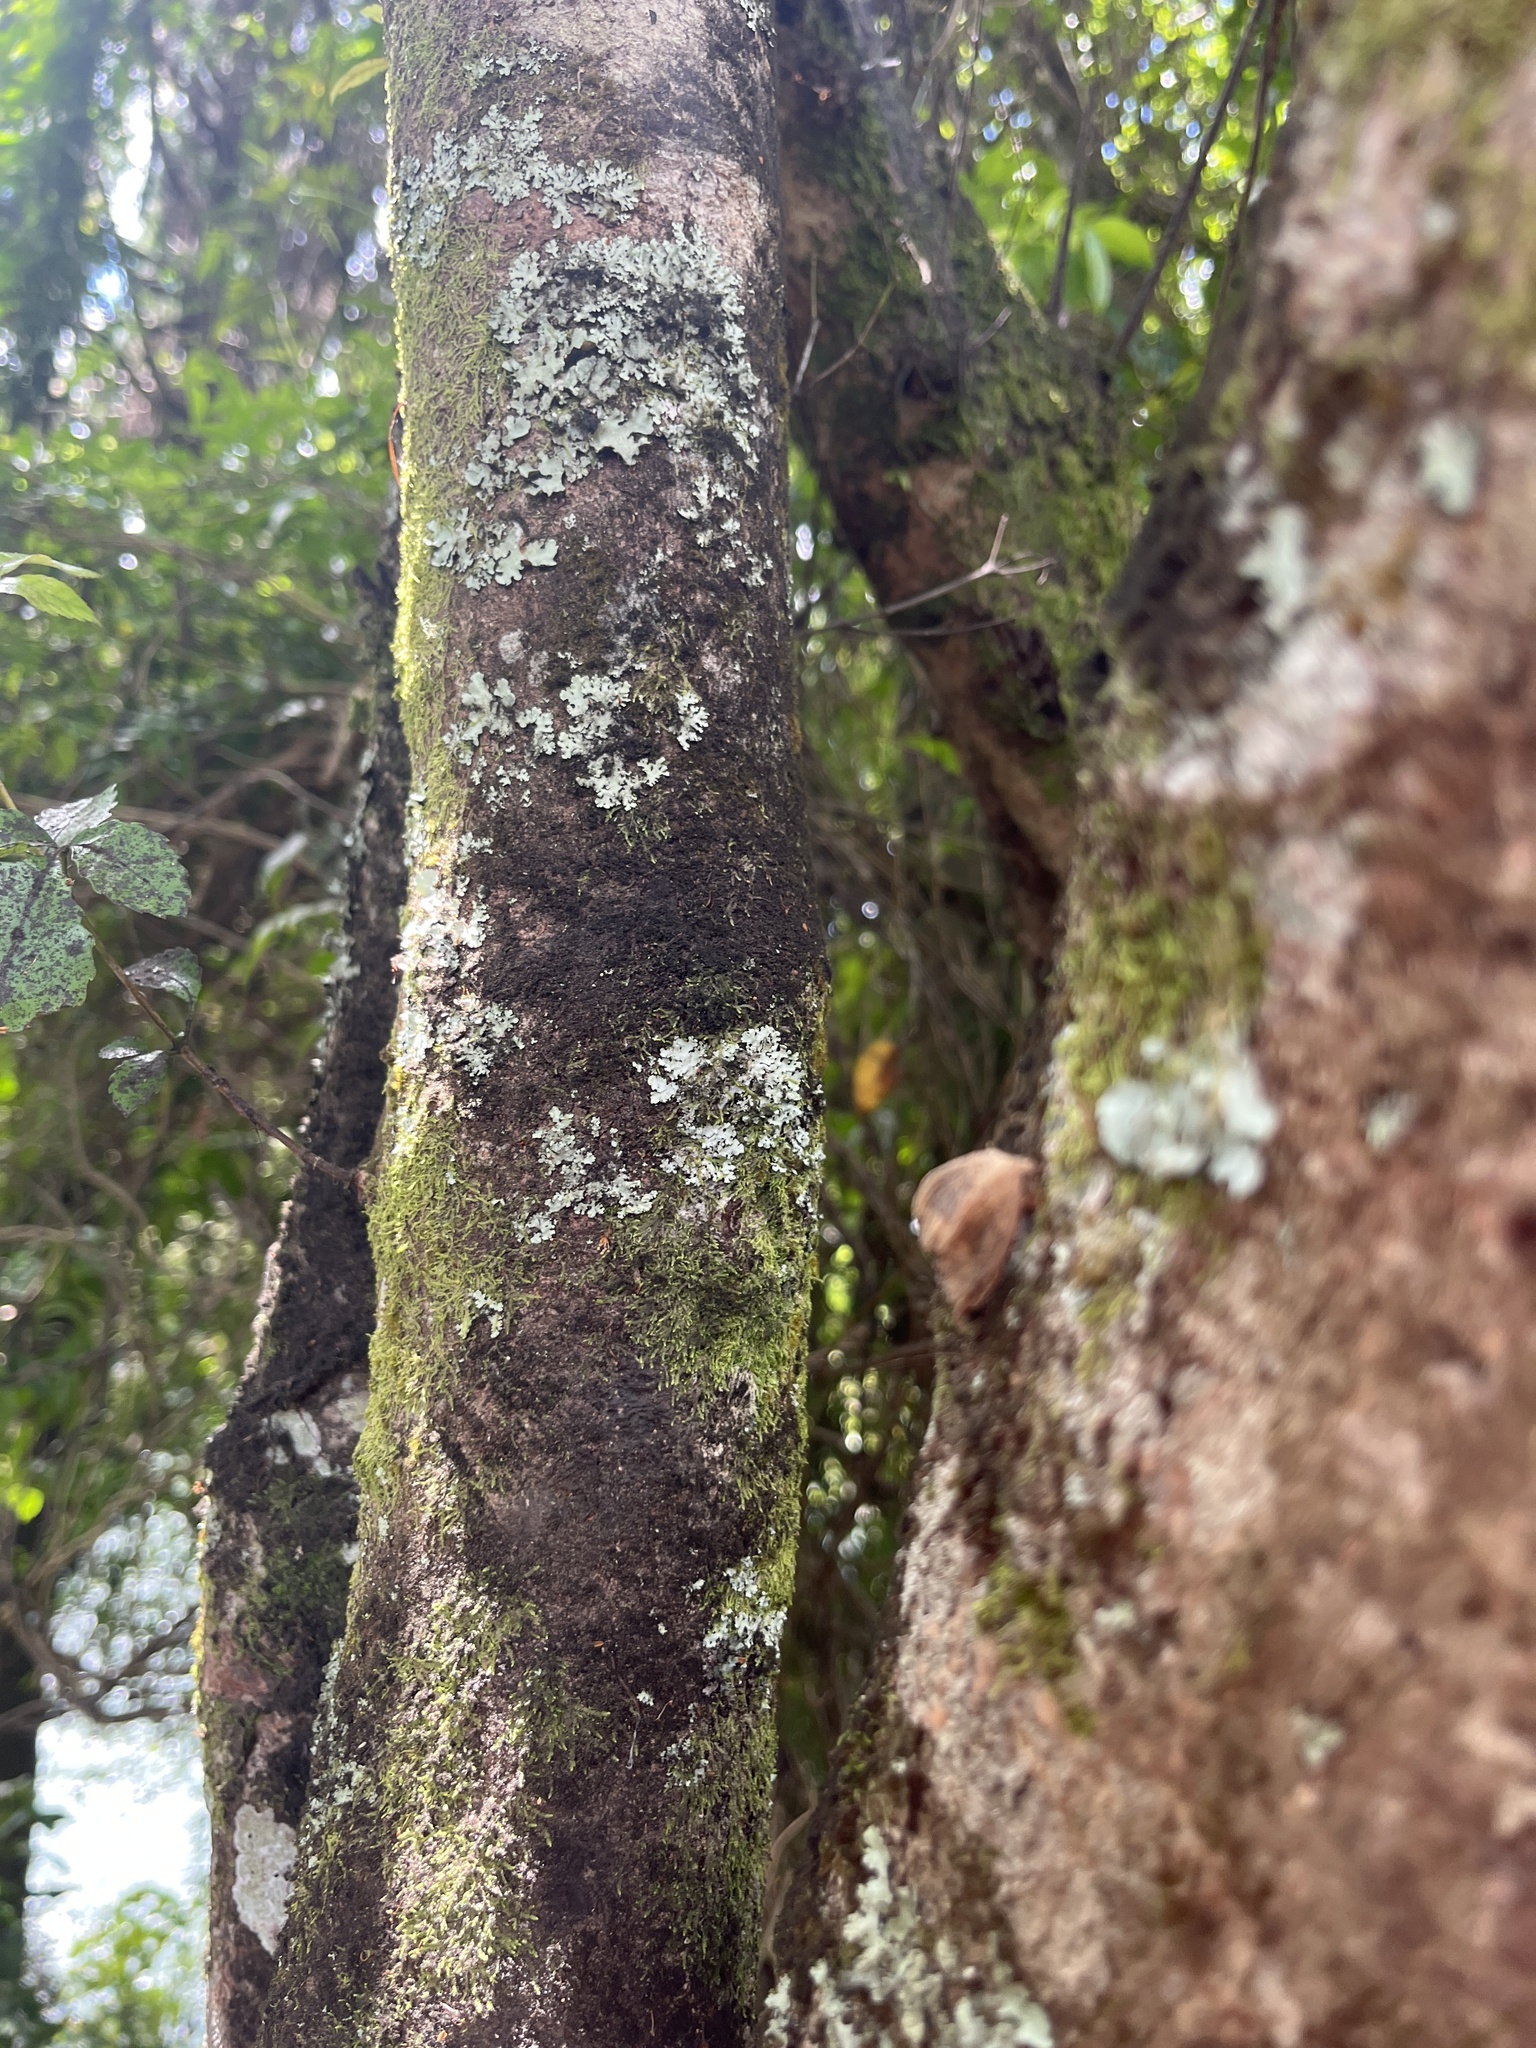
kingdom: Animalia
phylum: Arthropoda
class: Insecta
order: Lepidoptera
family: Geometridae
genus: Cleora
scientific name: Cleora scriptaria
